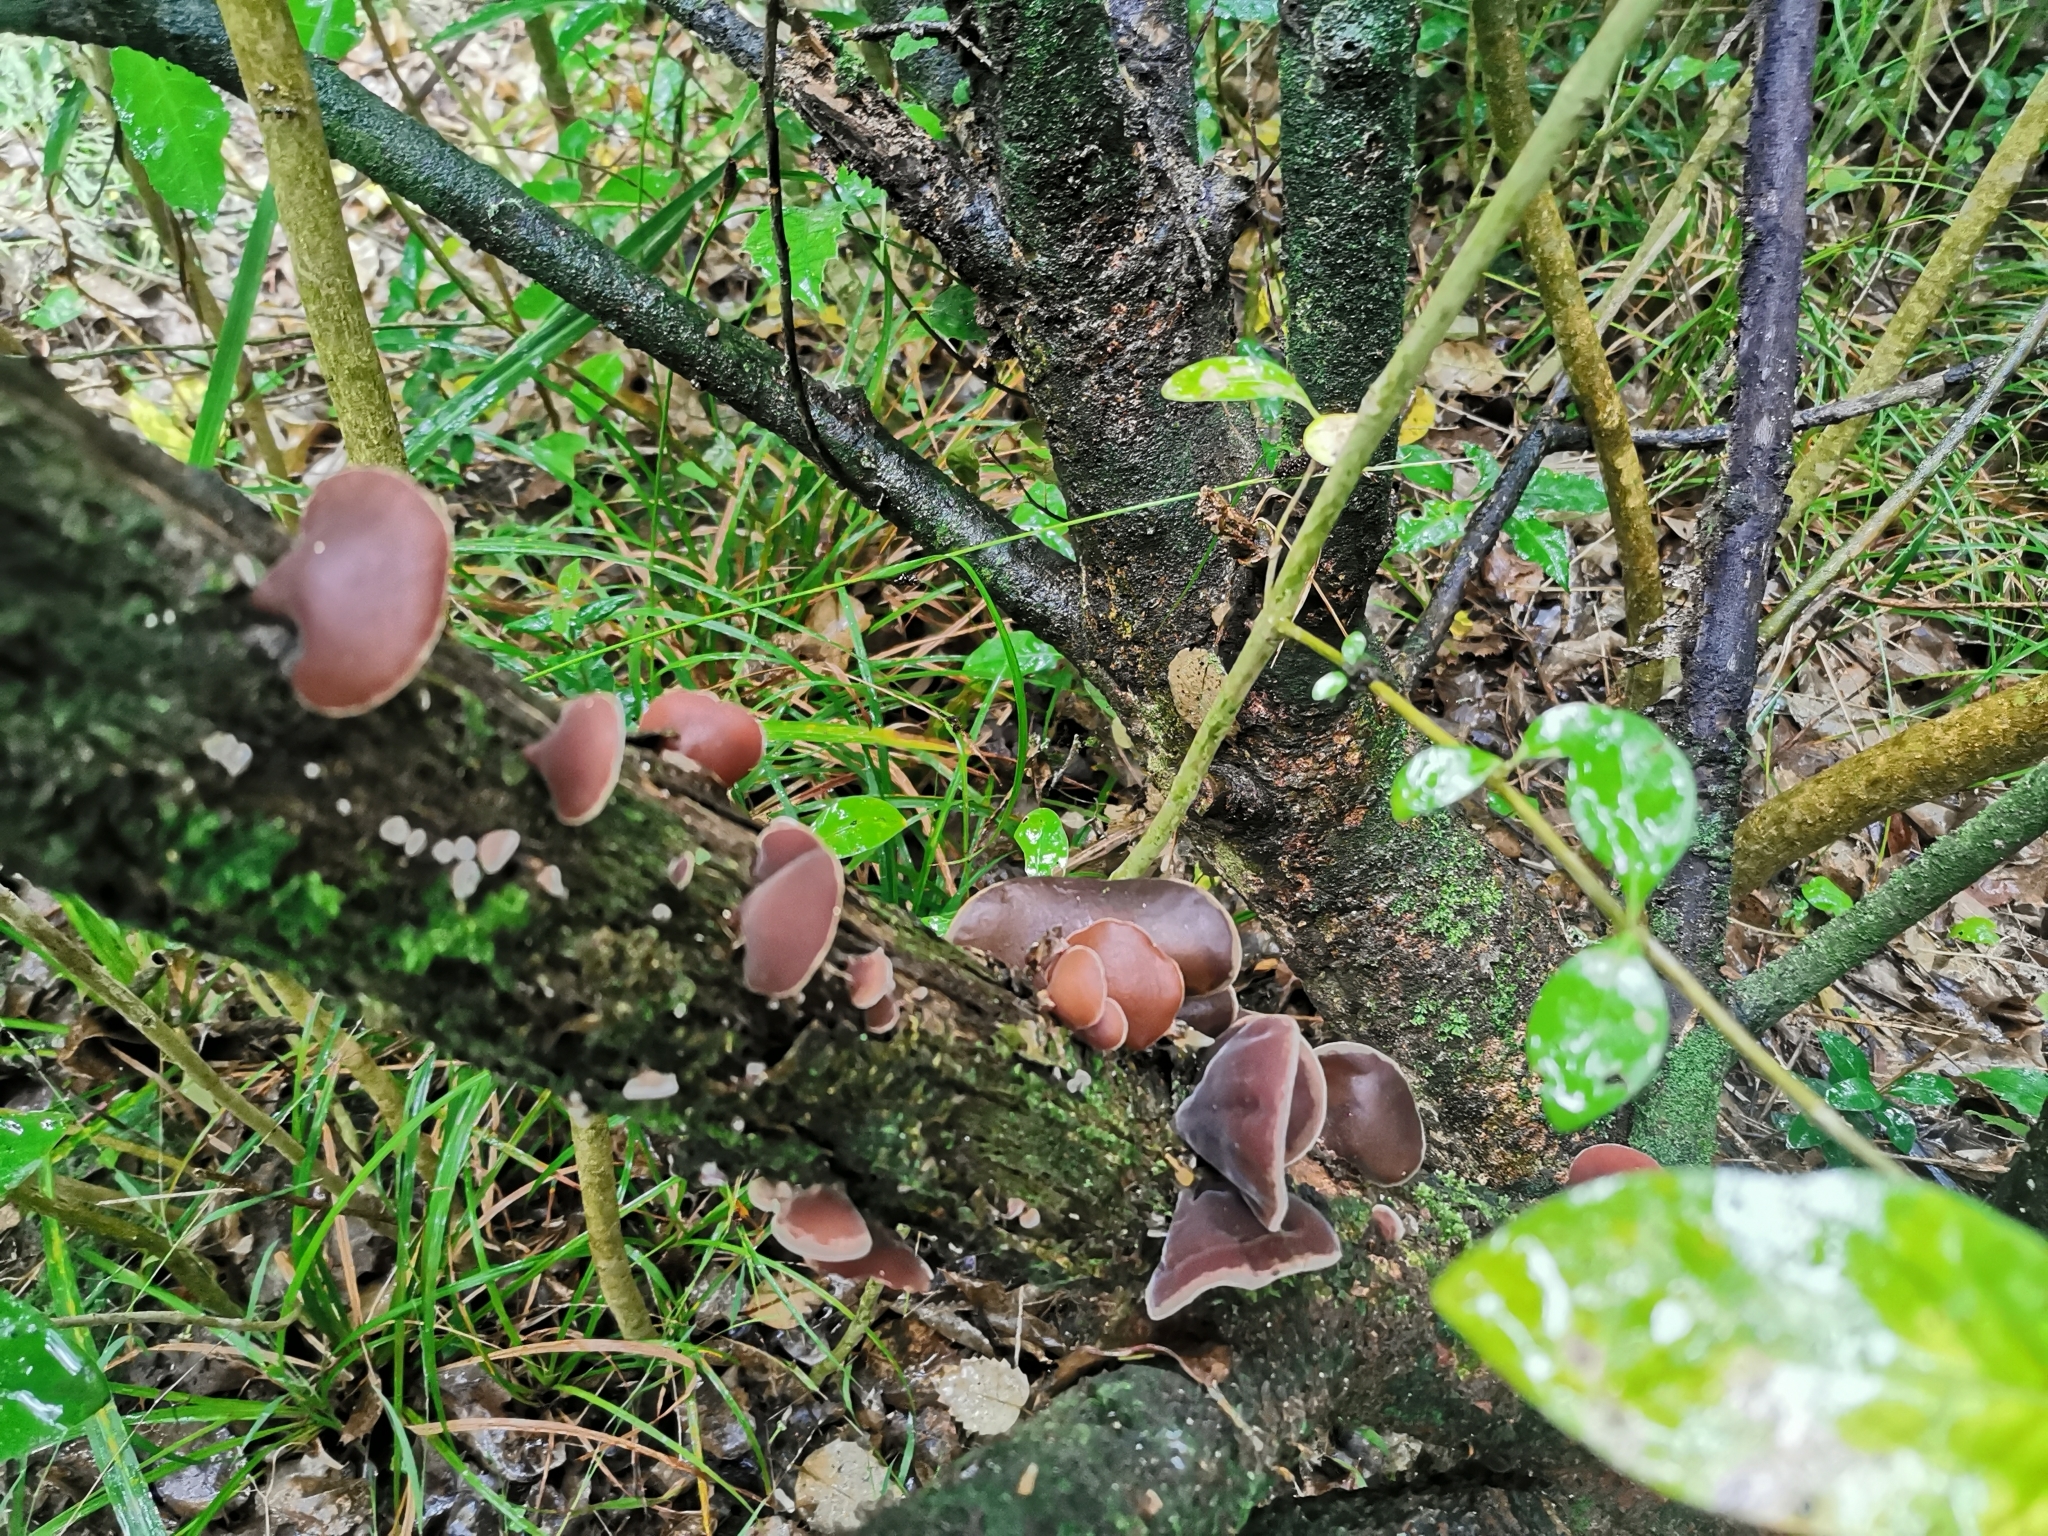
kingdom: Fungi
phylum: Basidiomycota
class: Agaricomycetes
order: Auriculariales
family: Auriculariaceae
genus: Auricularia
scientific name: Auricularia cornea
